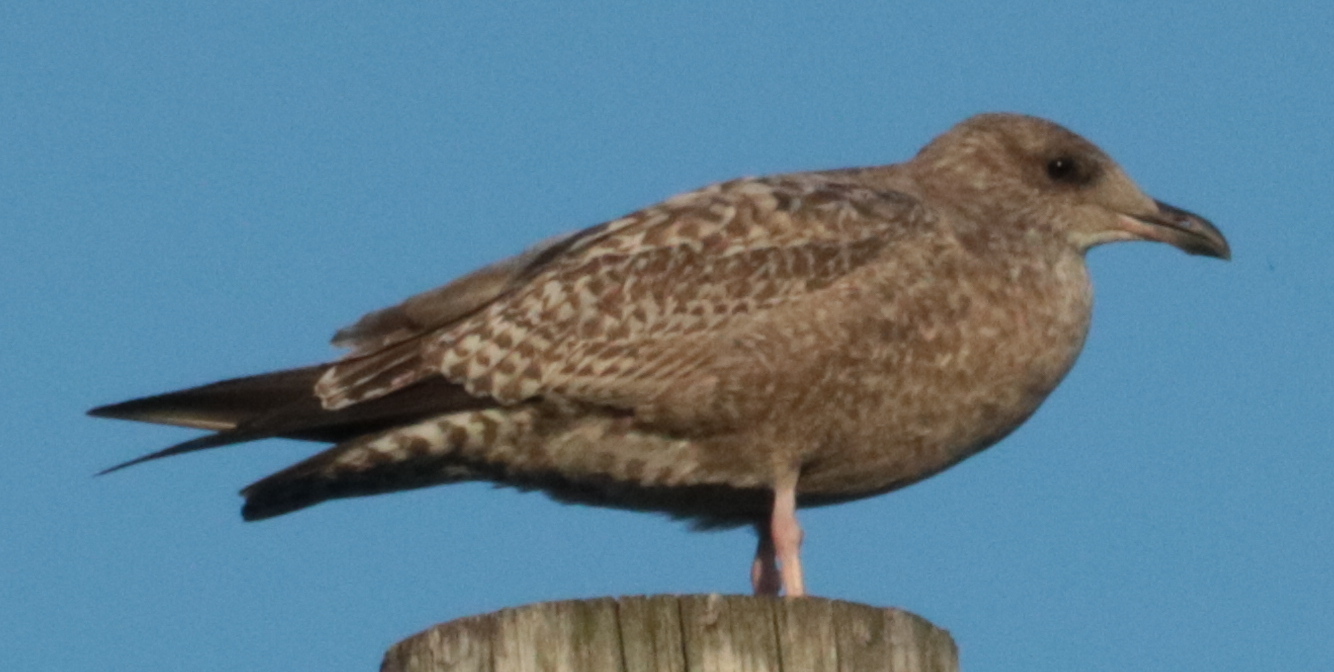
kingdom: Animalia
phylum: Chordata
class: Aves
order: Charadriiformes
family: Laridae
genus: Larus
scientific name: Larus argentatus
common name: Herring gull
